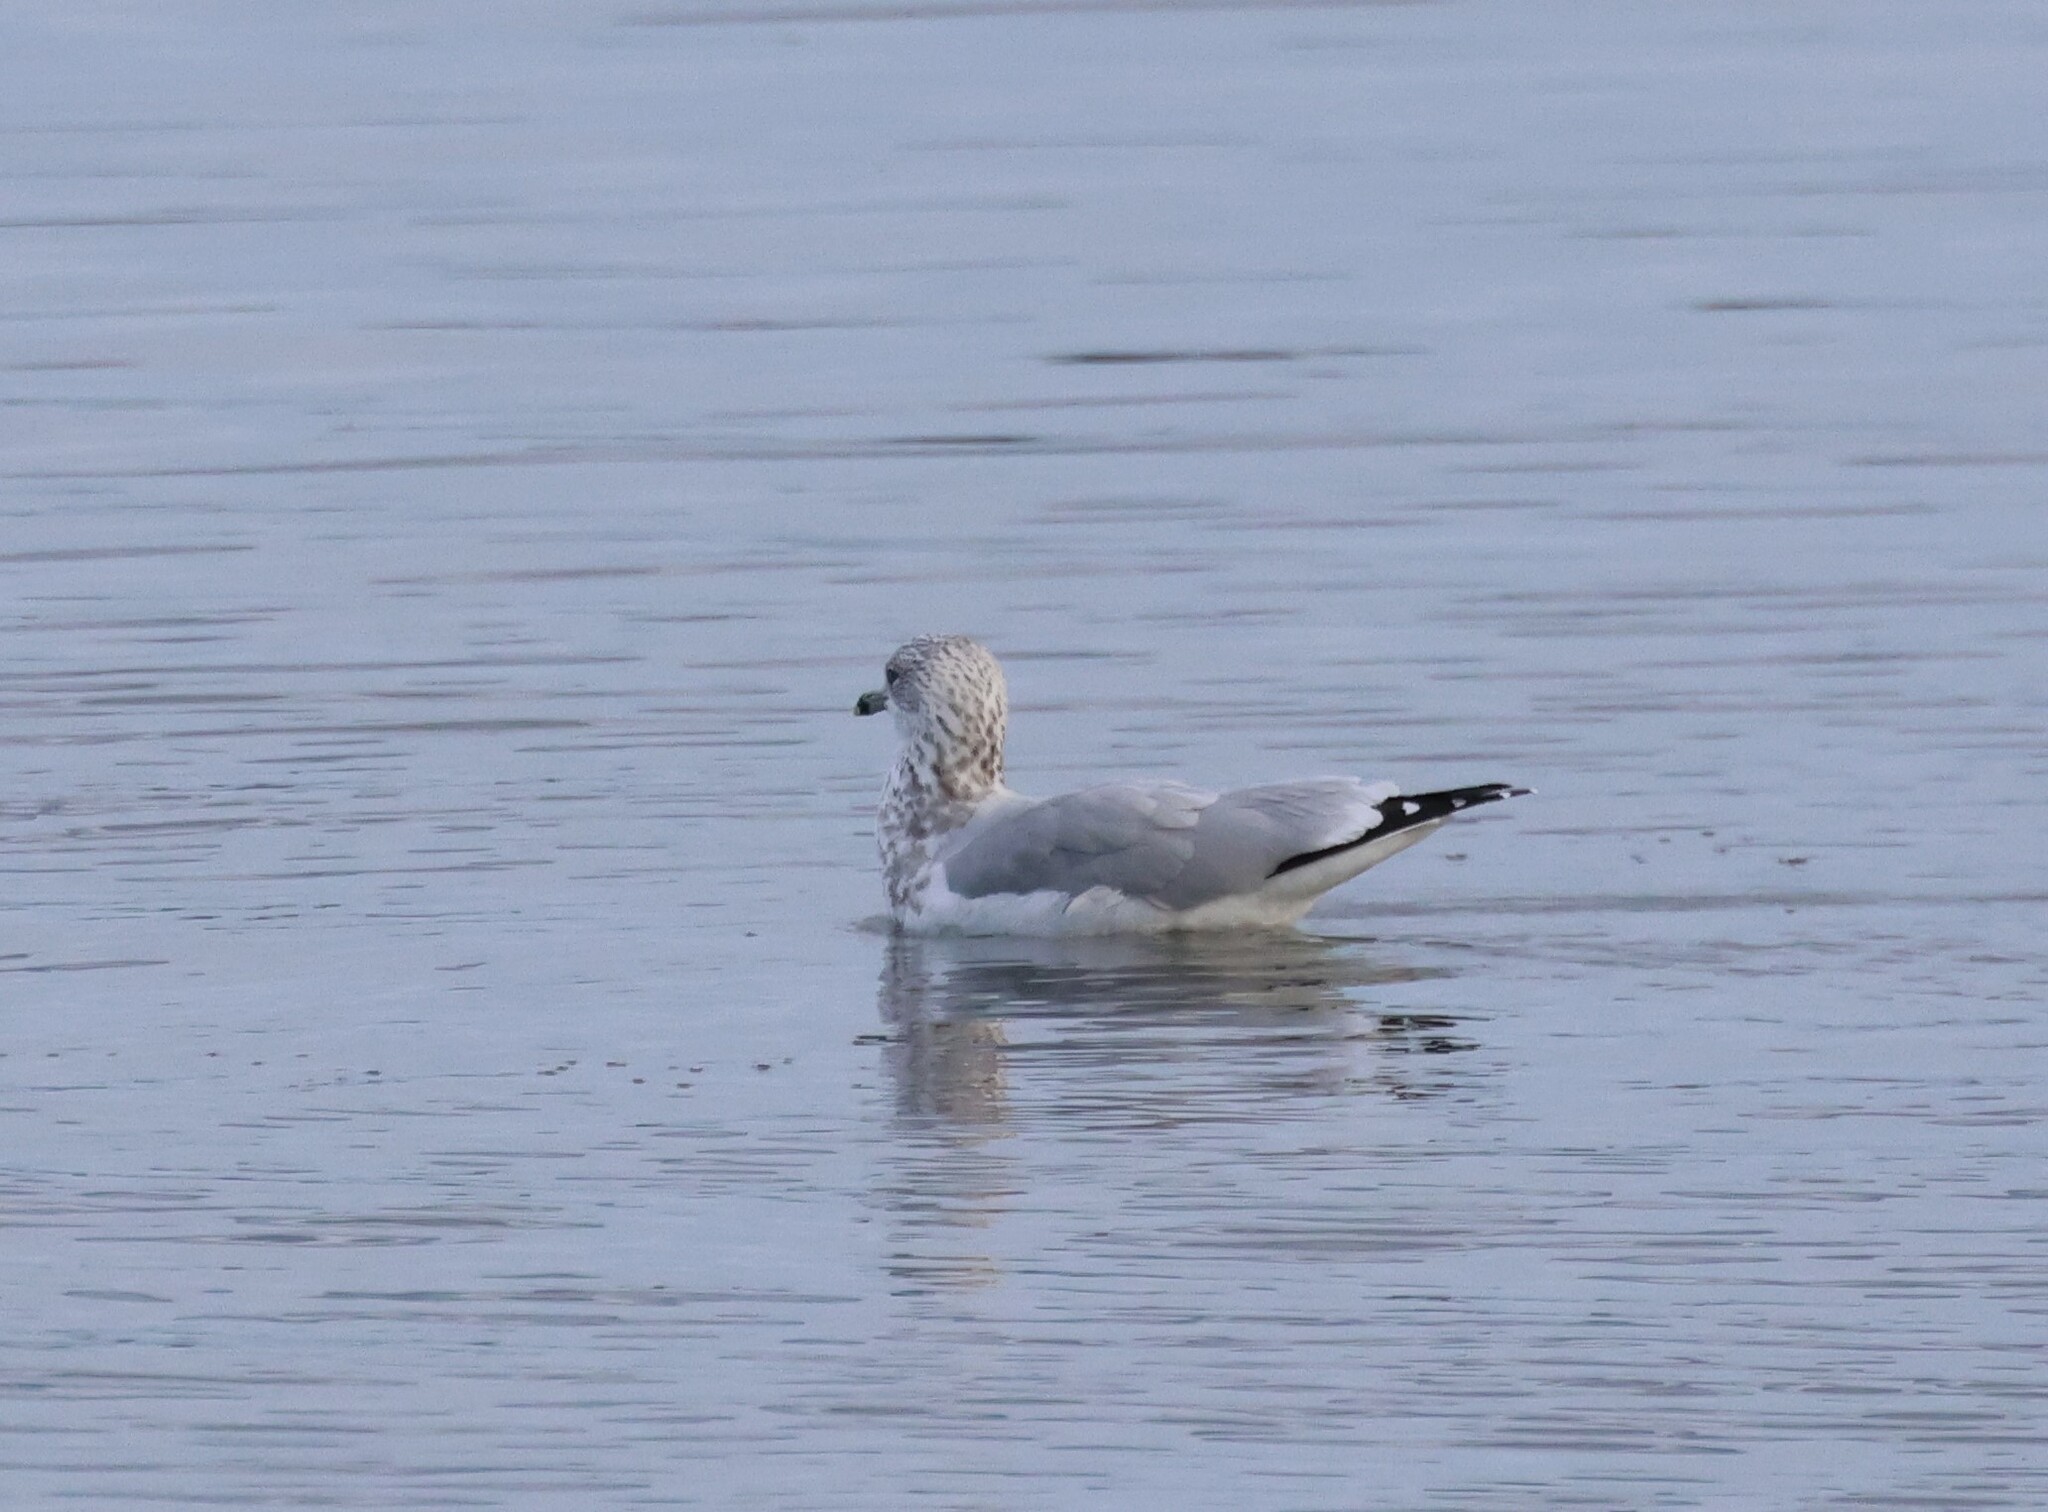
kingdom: Animalia
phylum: Chordata
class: Aves
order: Charadriiformes
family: Laridae
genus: Larus
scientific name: Larus delawarensis
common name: Ring-billed gull
